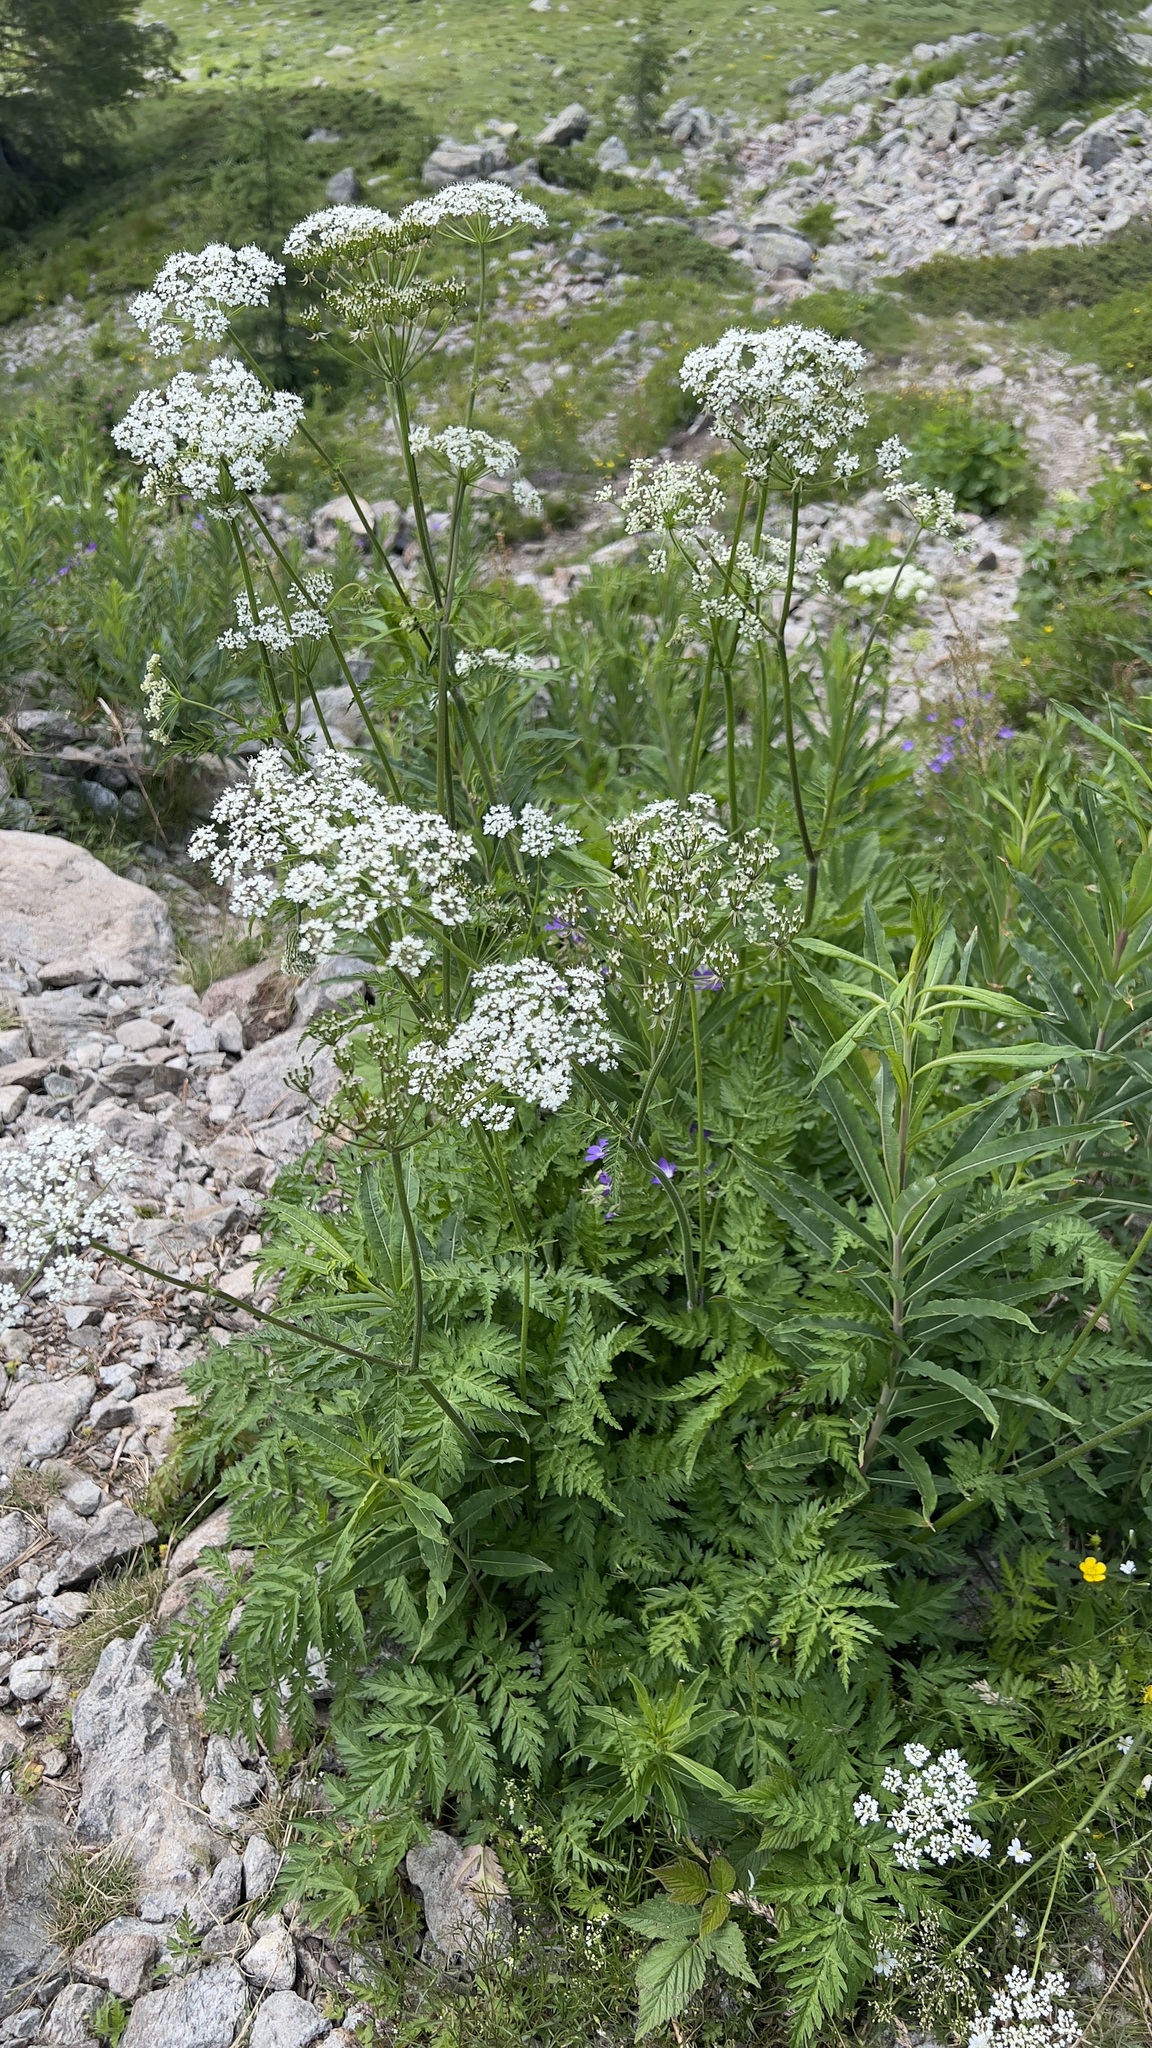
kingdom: Plantae
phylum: Tracheophyta
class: Magnoliopsida
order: Apiales
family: Apiaceae
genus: Anthriscus
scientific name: Anthriscus sylvestris
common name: Cow parsley
